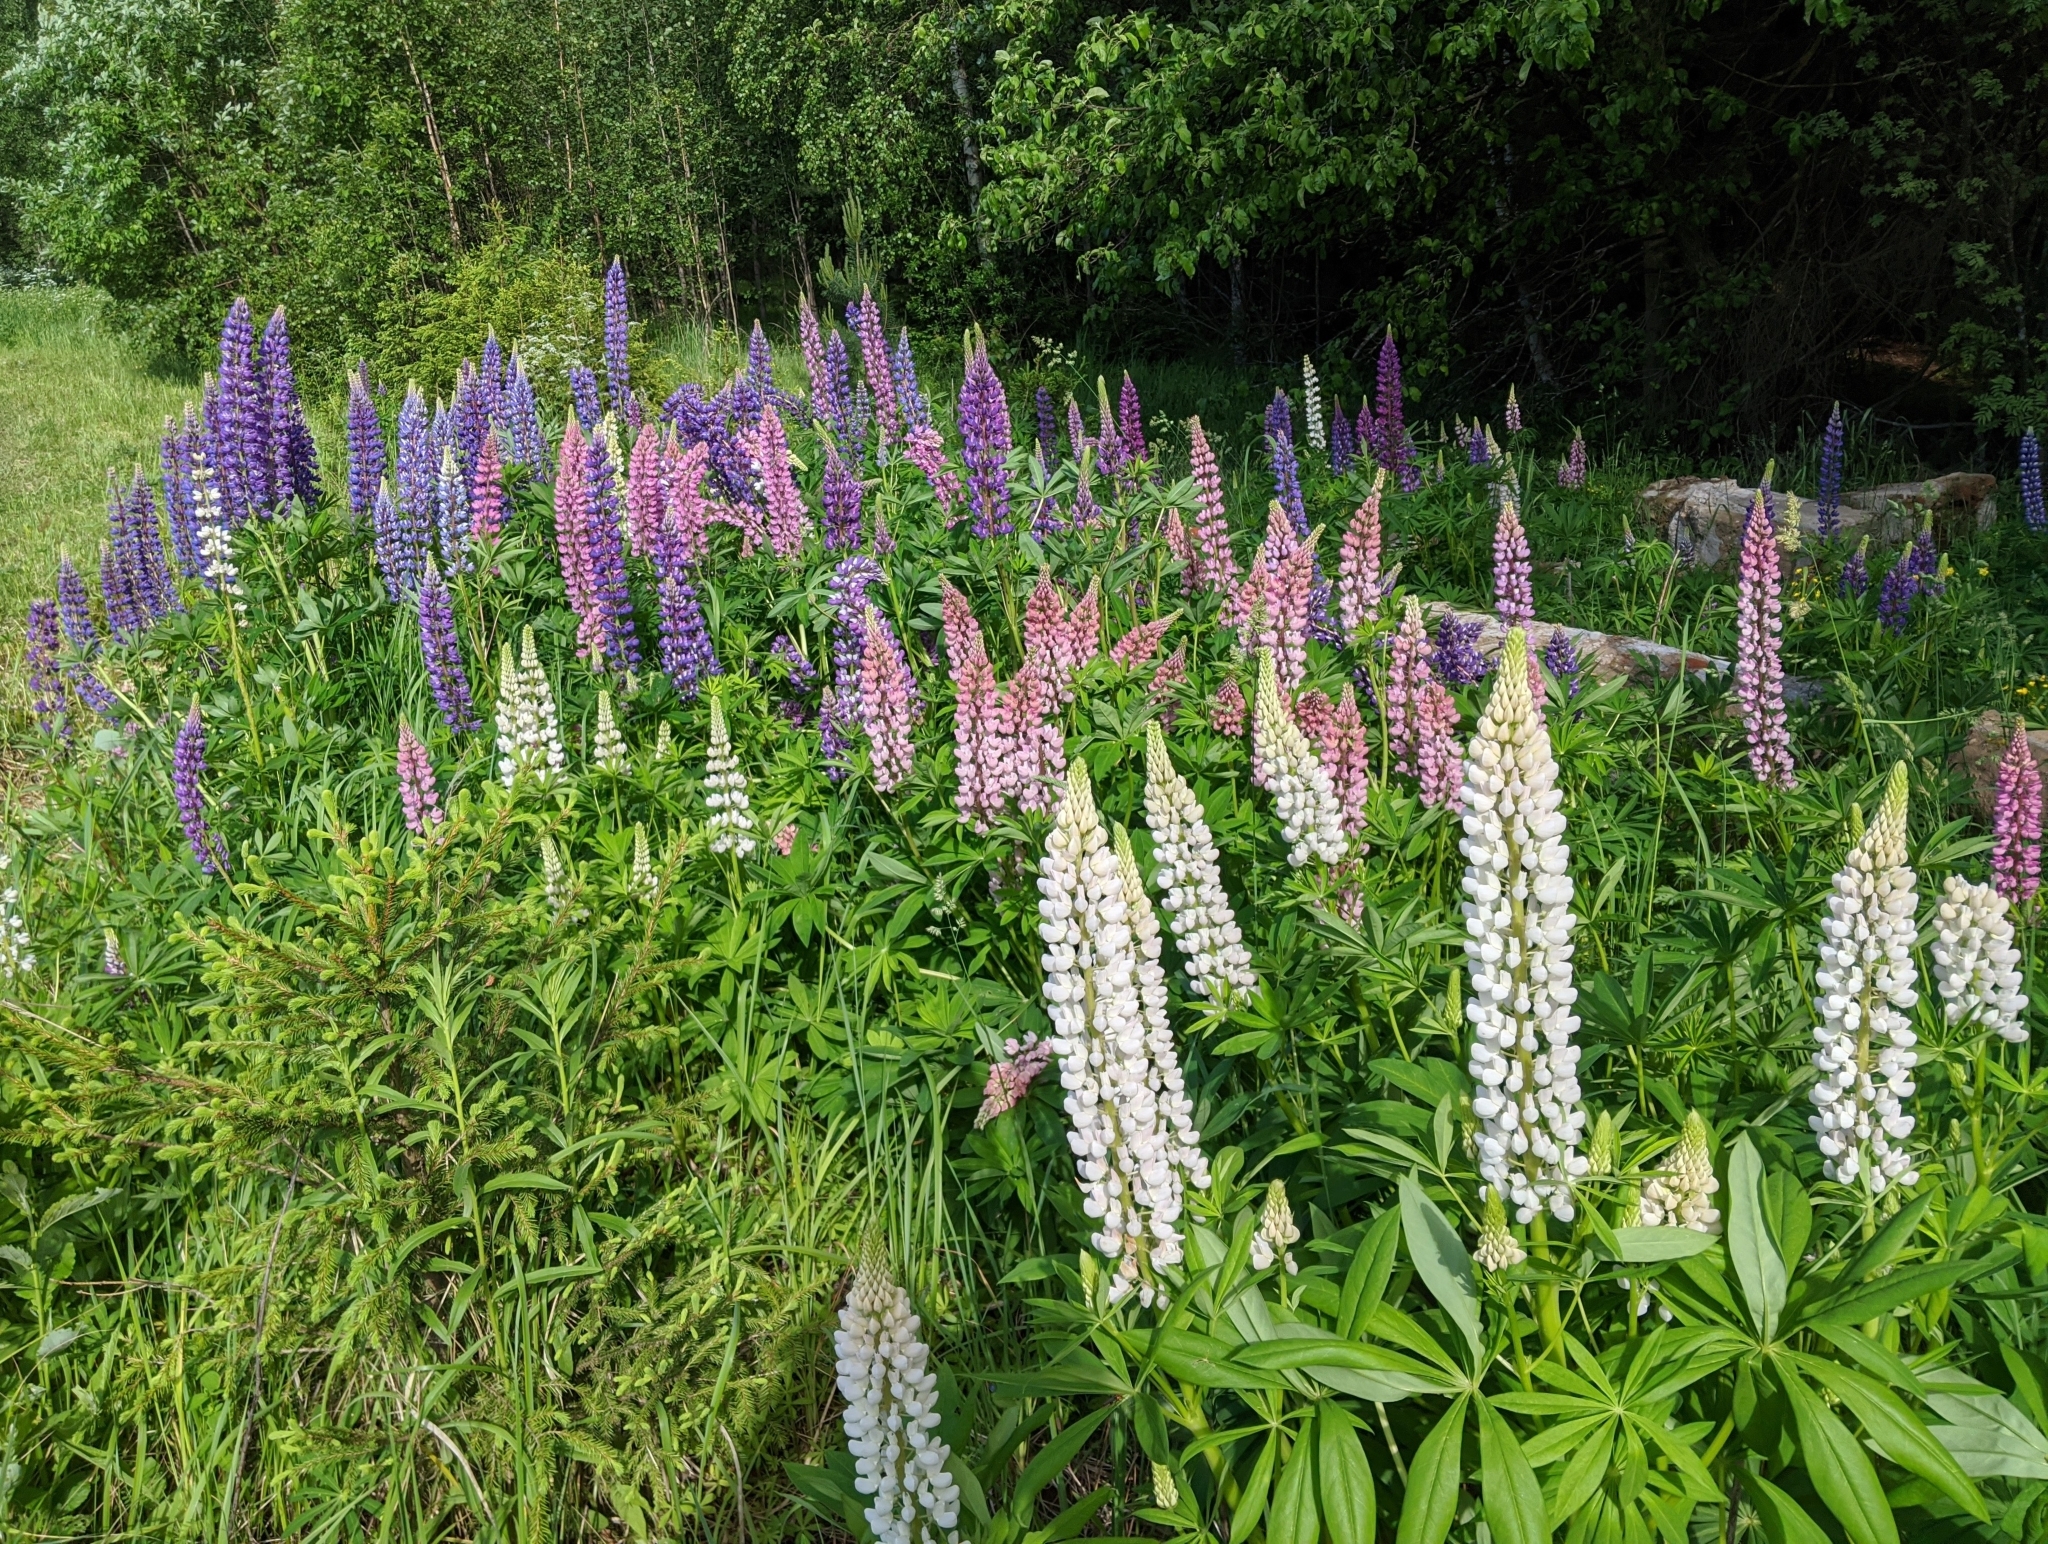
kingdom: Plantae
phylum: Tracheophyta
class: Magnoliopsida
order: Fabales
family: Fabaceae
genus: Lupinus
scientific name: Lupinus polyphyllus
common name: Garden lupin
